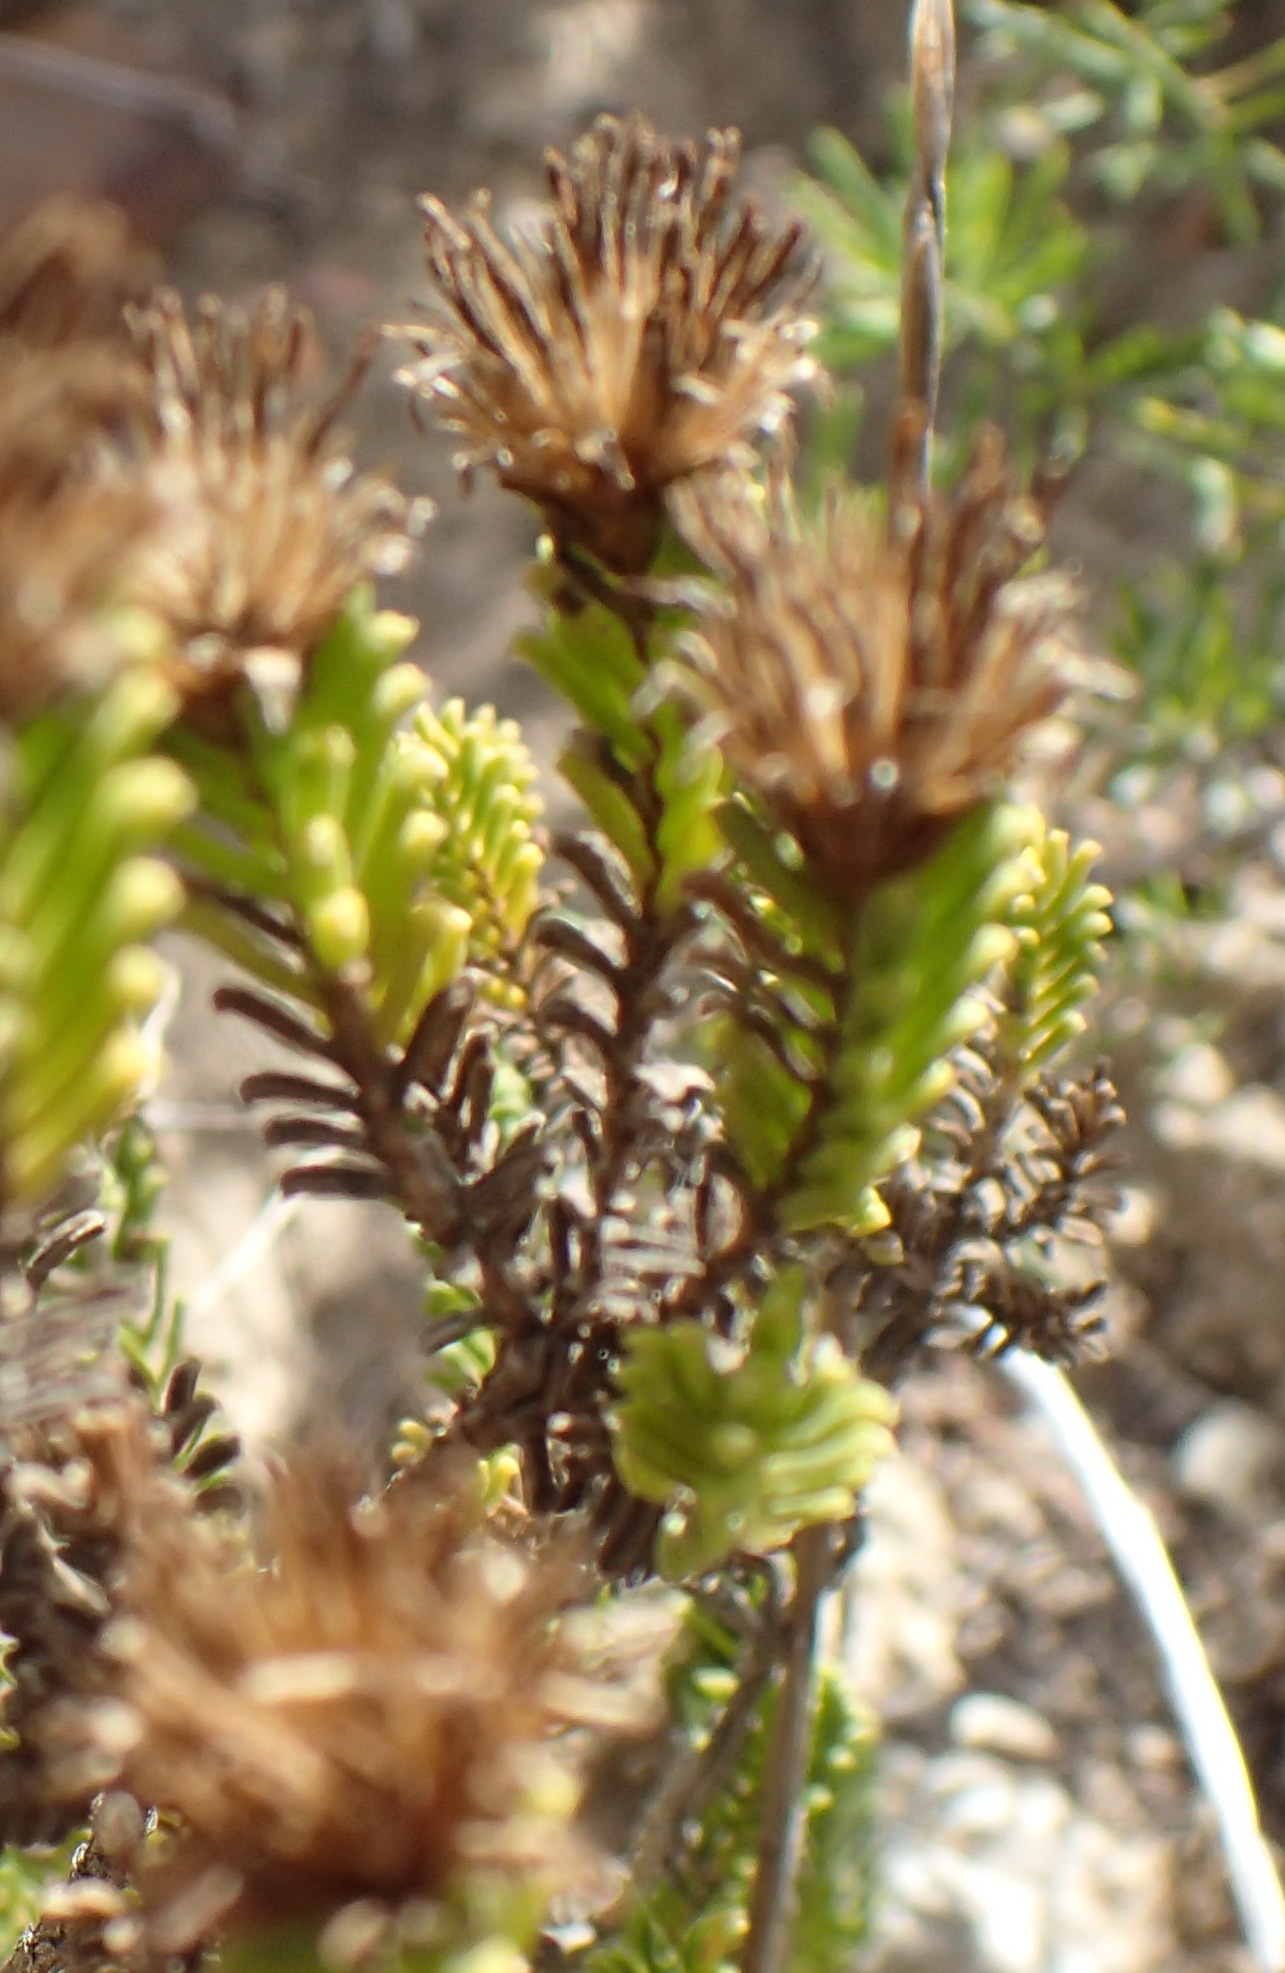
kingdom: Plantae
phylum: Tracheophyta
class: Magnoliopsida
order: Asterales
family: Asteraceae
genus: Oedera
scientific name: Oedera uniflora
